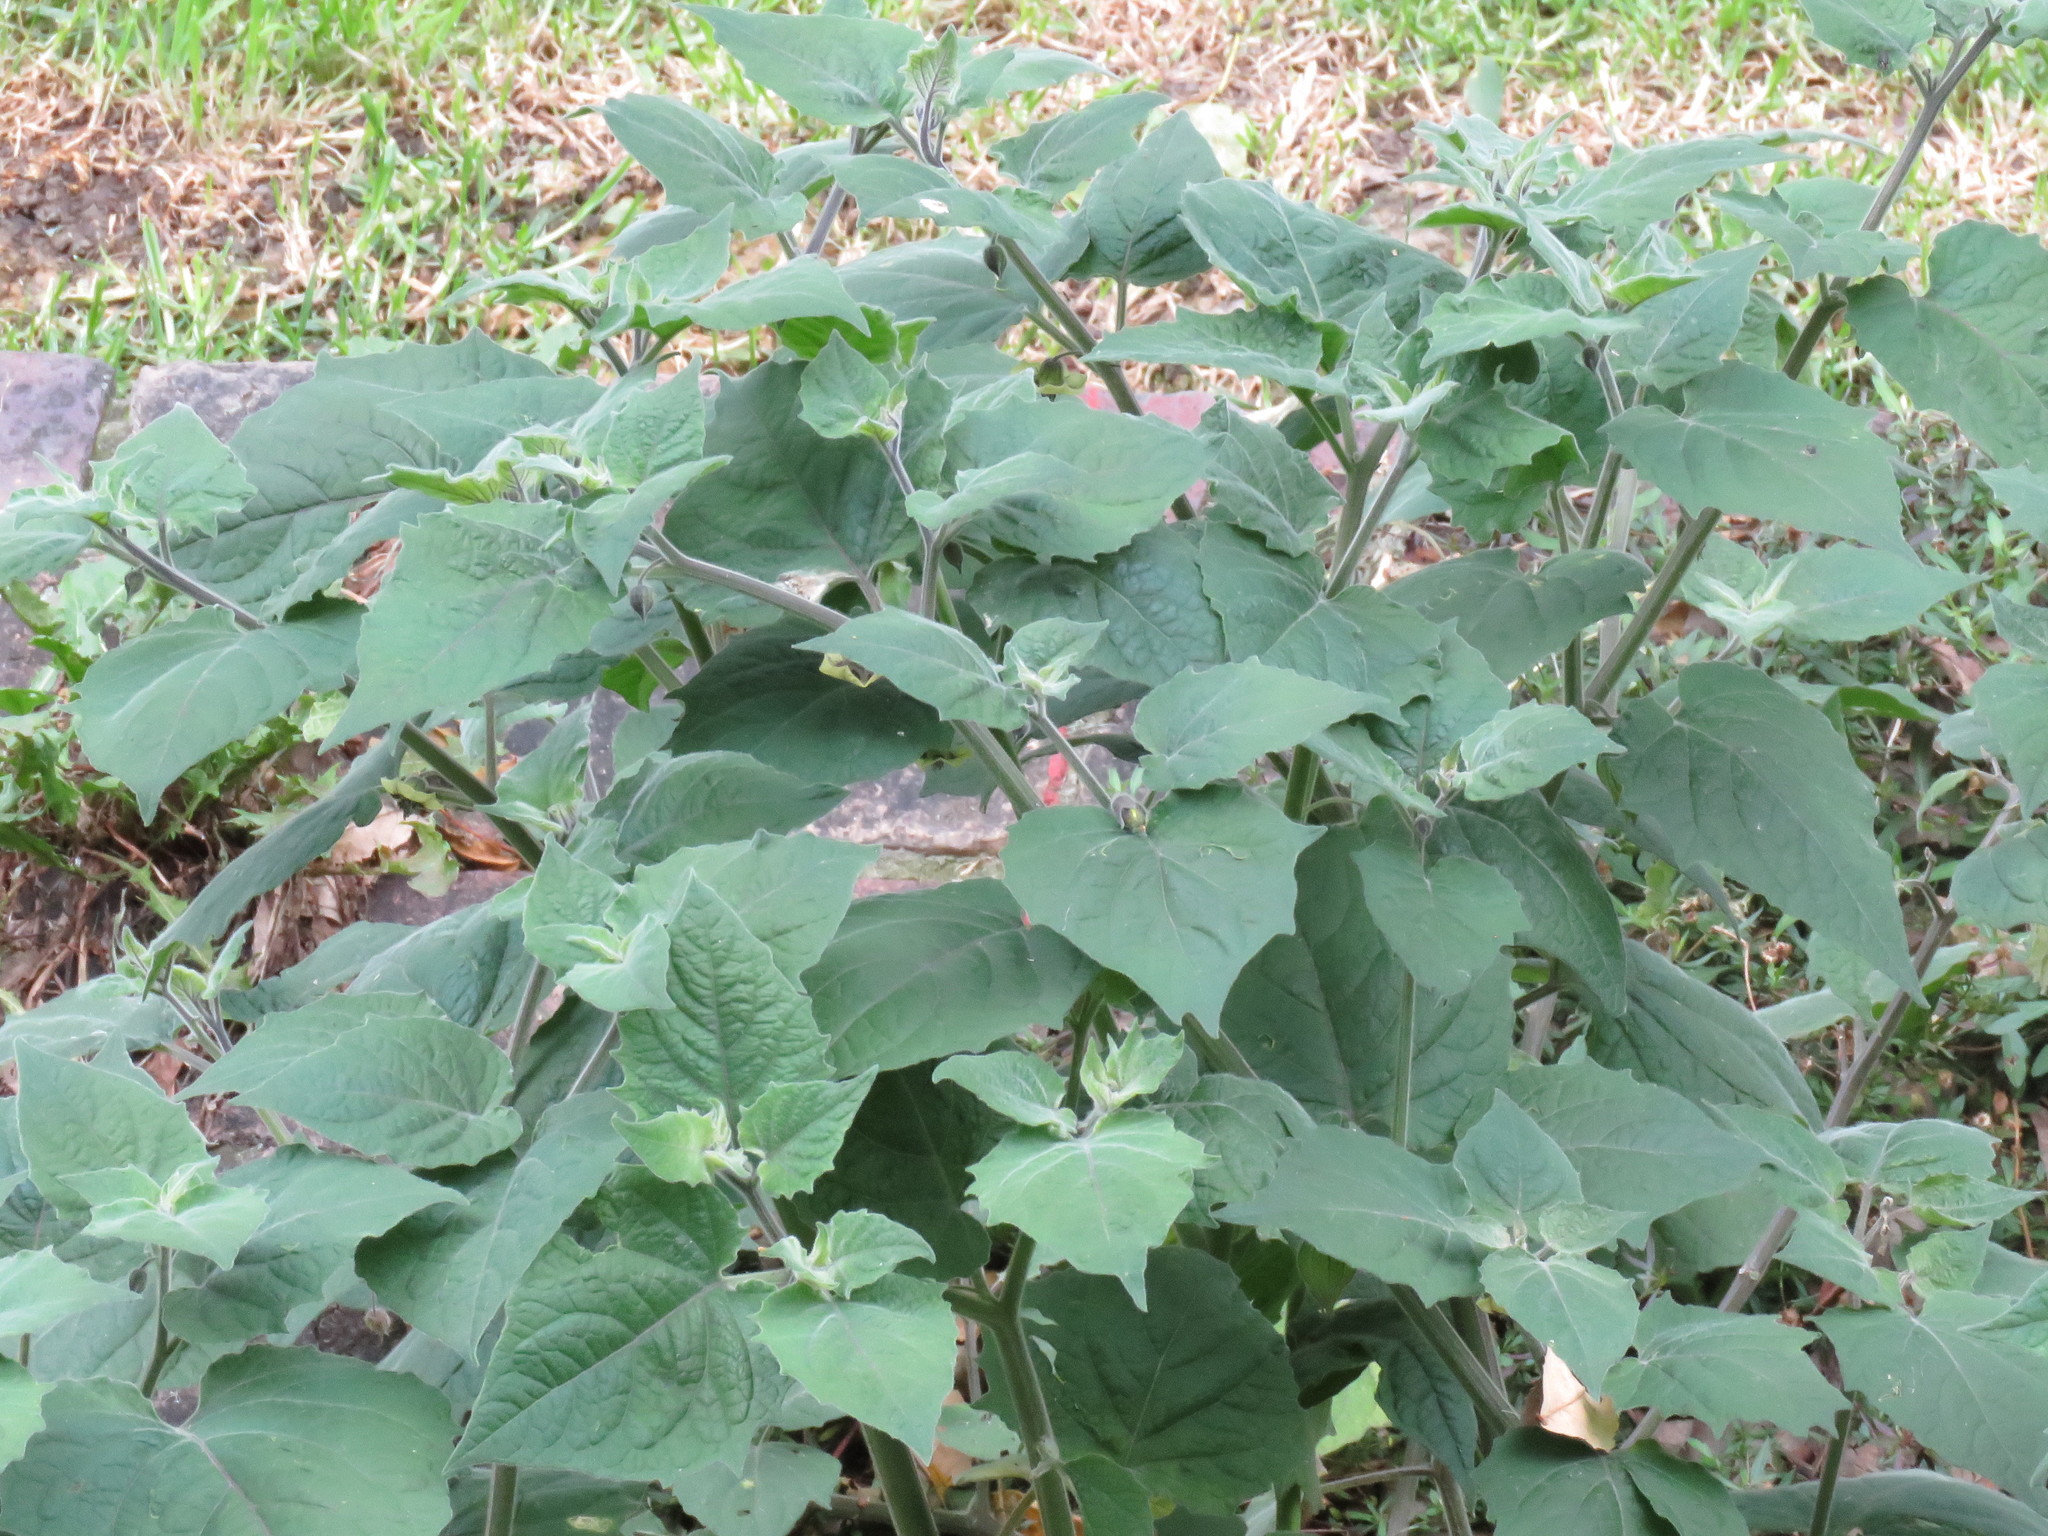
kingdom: Plantae
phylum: Tracheophyta
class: Magnoliopsida
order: Solanales
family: Solanaceae
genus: Physalis
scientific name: Physalis peruviana
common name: Cape-gooseberry
